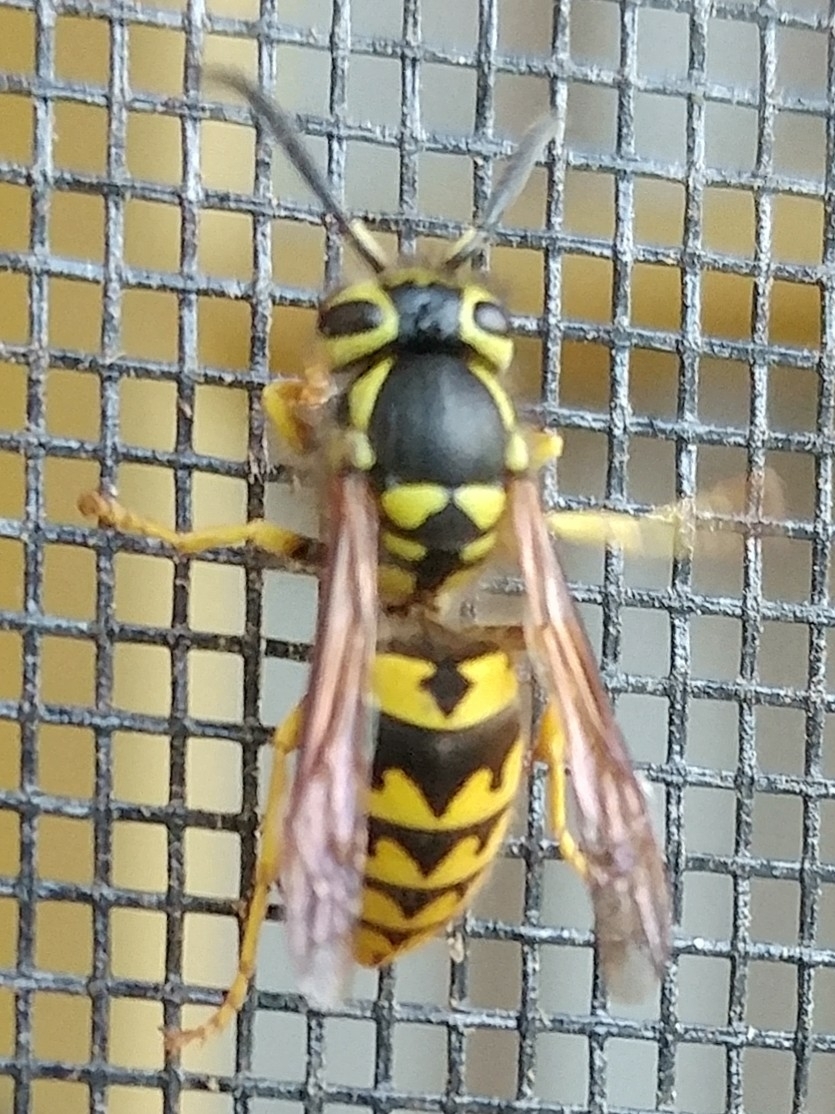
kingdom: Animalia
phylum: Arthropoda
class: Insecta
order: Hymenoptera
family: Vespidae
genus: Vespula
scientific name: Vespula pensylvanica
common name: Western yellowjacket
